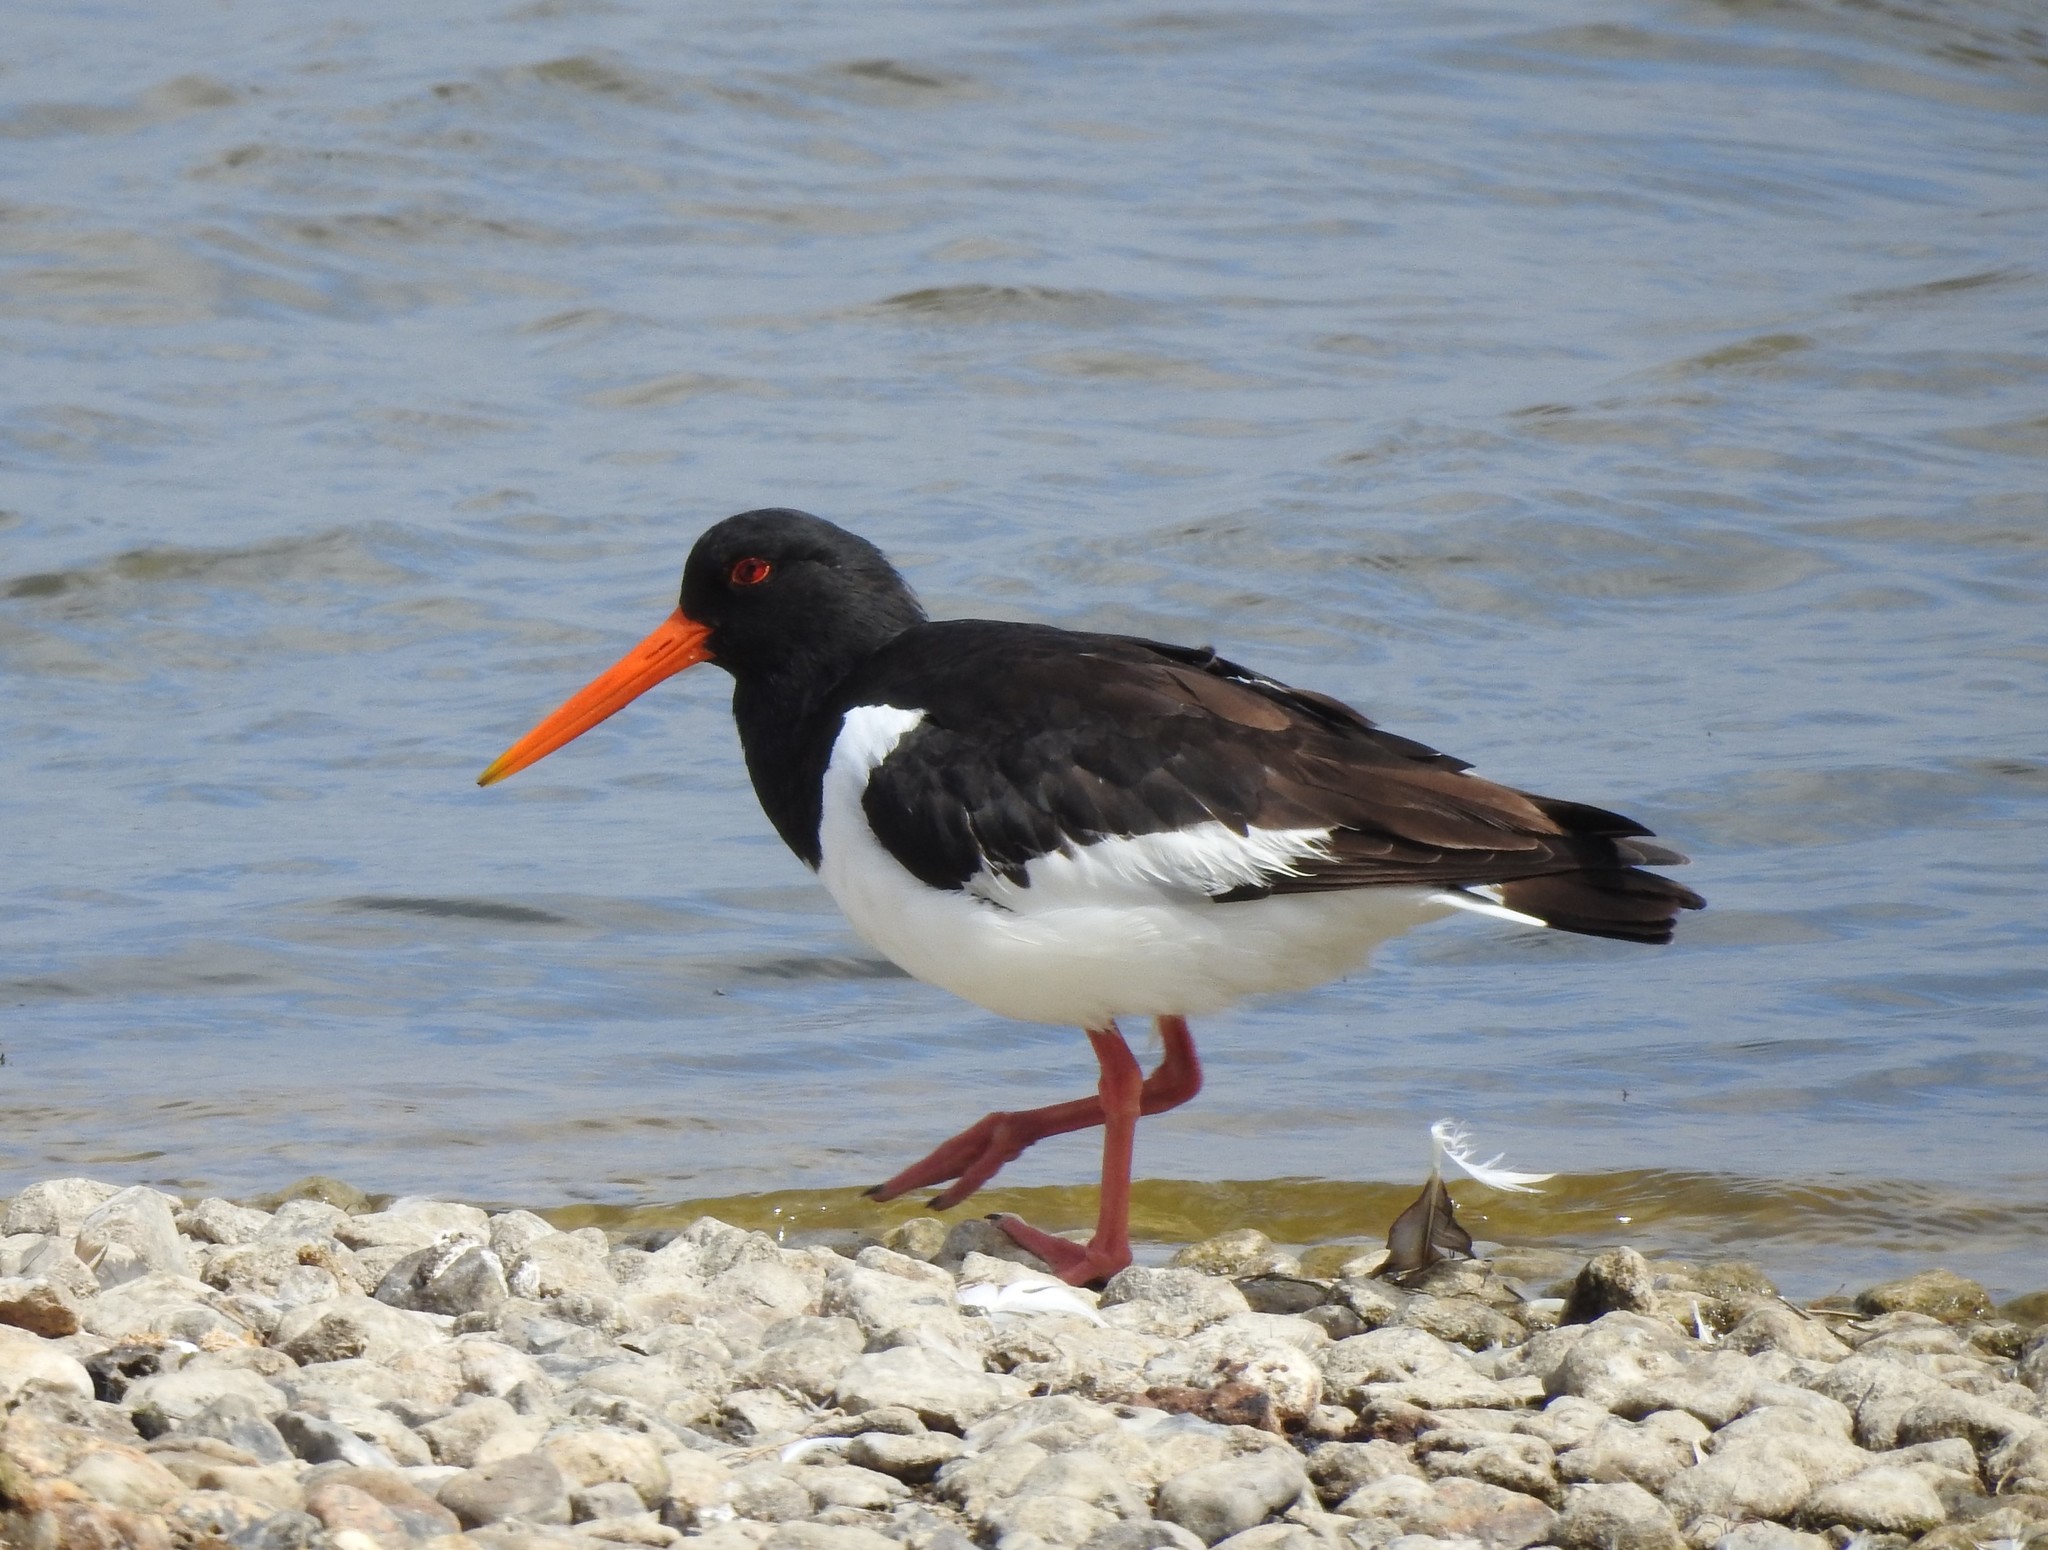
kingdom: Animalia
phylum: Chordata
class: Aves
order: Charadriiformes
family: Haematopodidae
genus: Haematopus
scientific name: Haematopus ostralegus
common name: Eurasian oystercatcher
